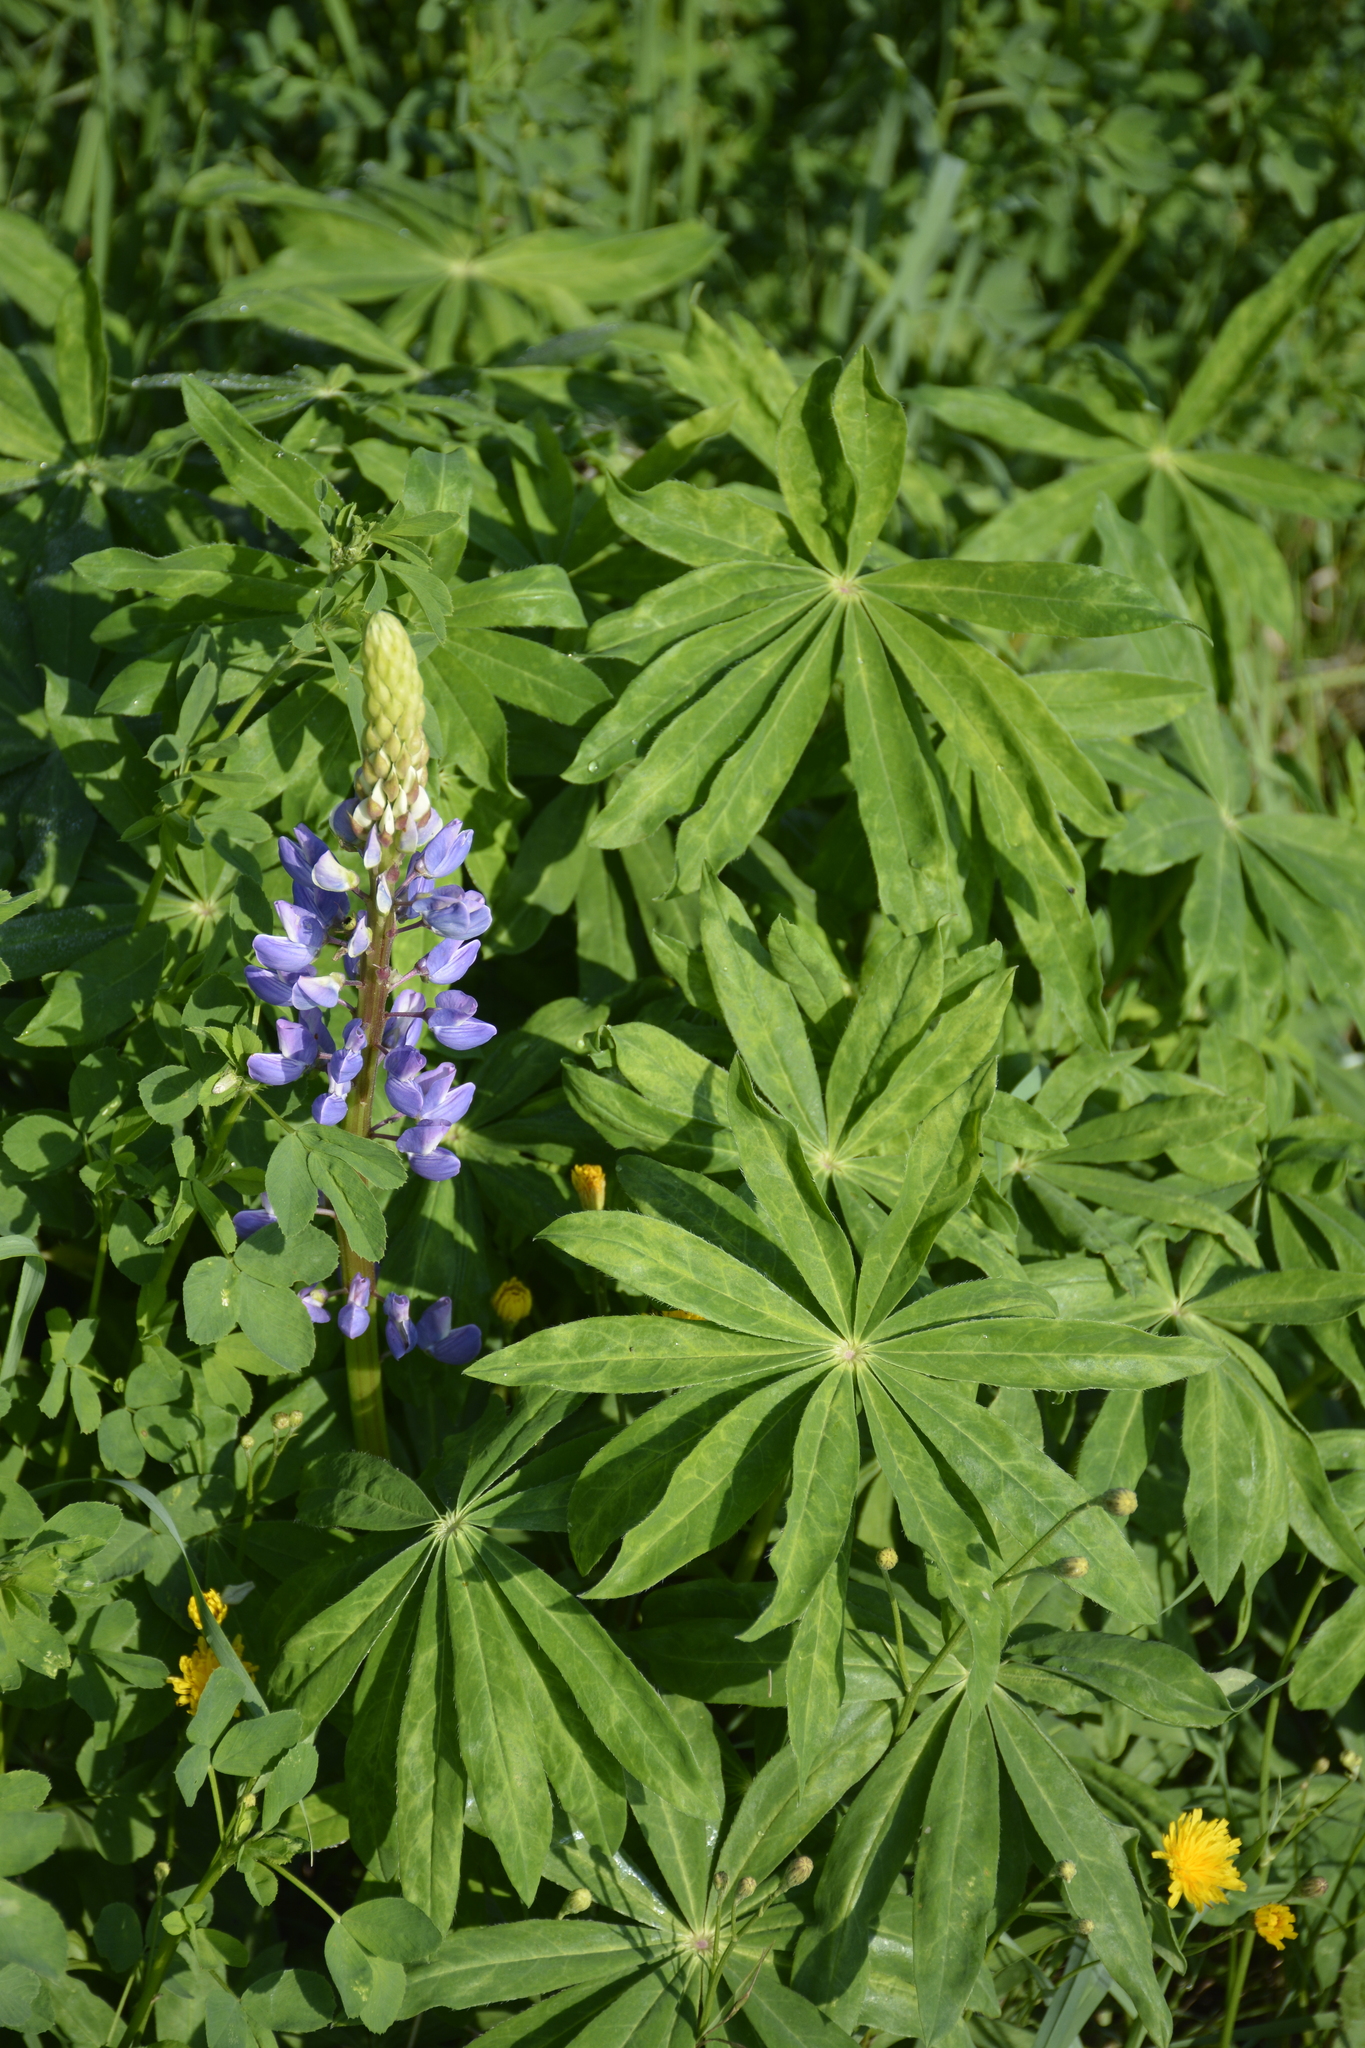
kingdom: Plantae
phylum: Tracheophyta
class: Magnoliopsida
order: Fabales
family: Fabaceae
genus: Lupinus
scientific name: Lupinus polyphyllus
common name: Garden lupin
